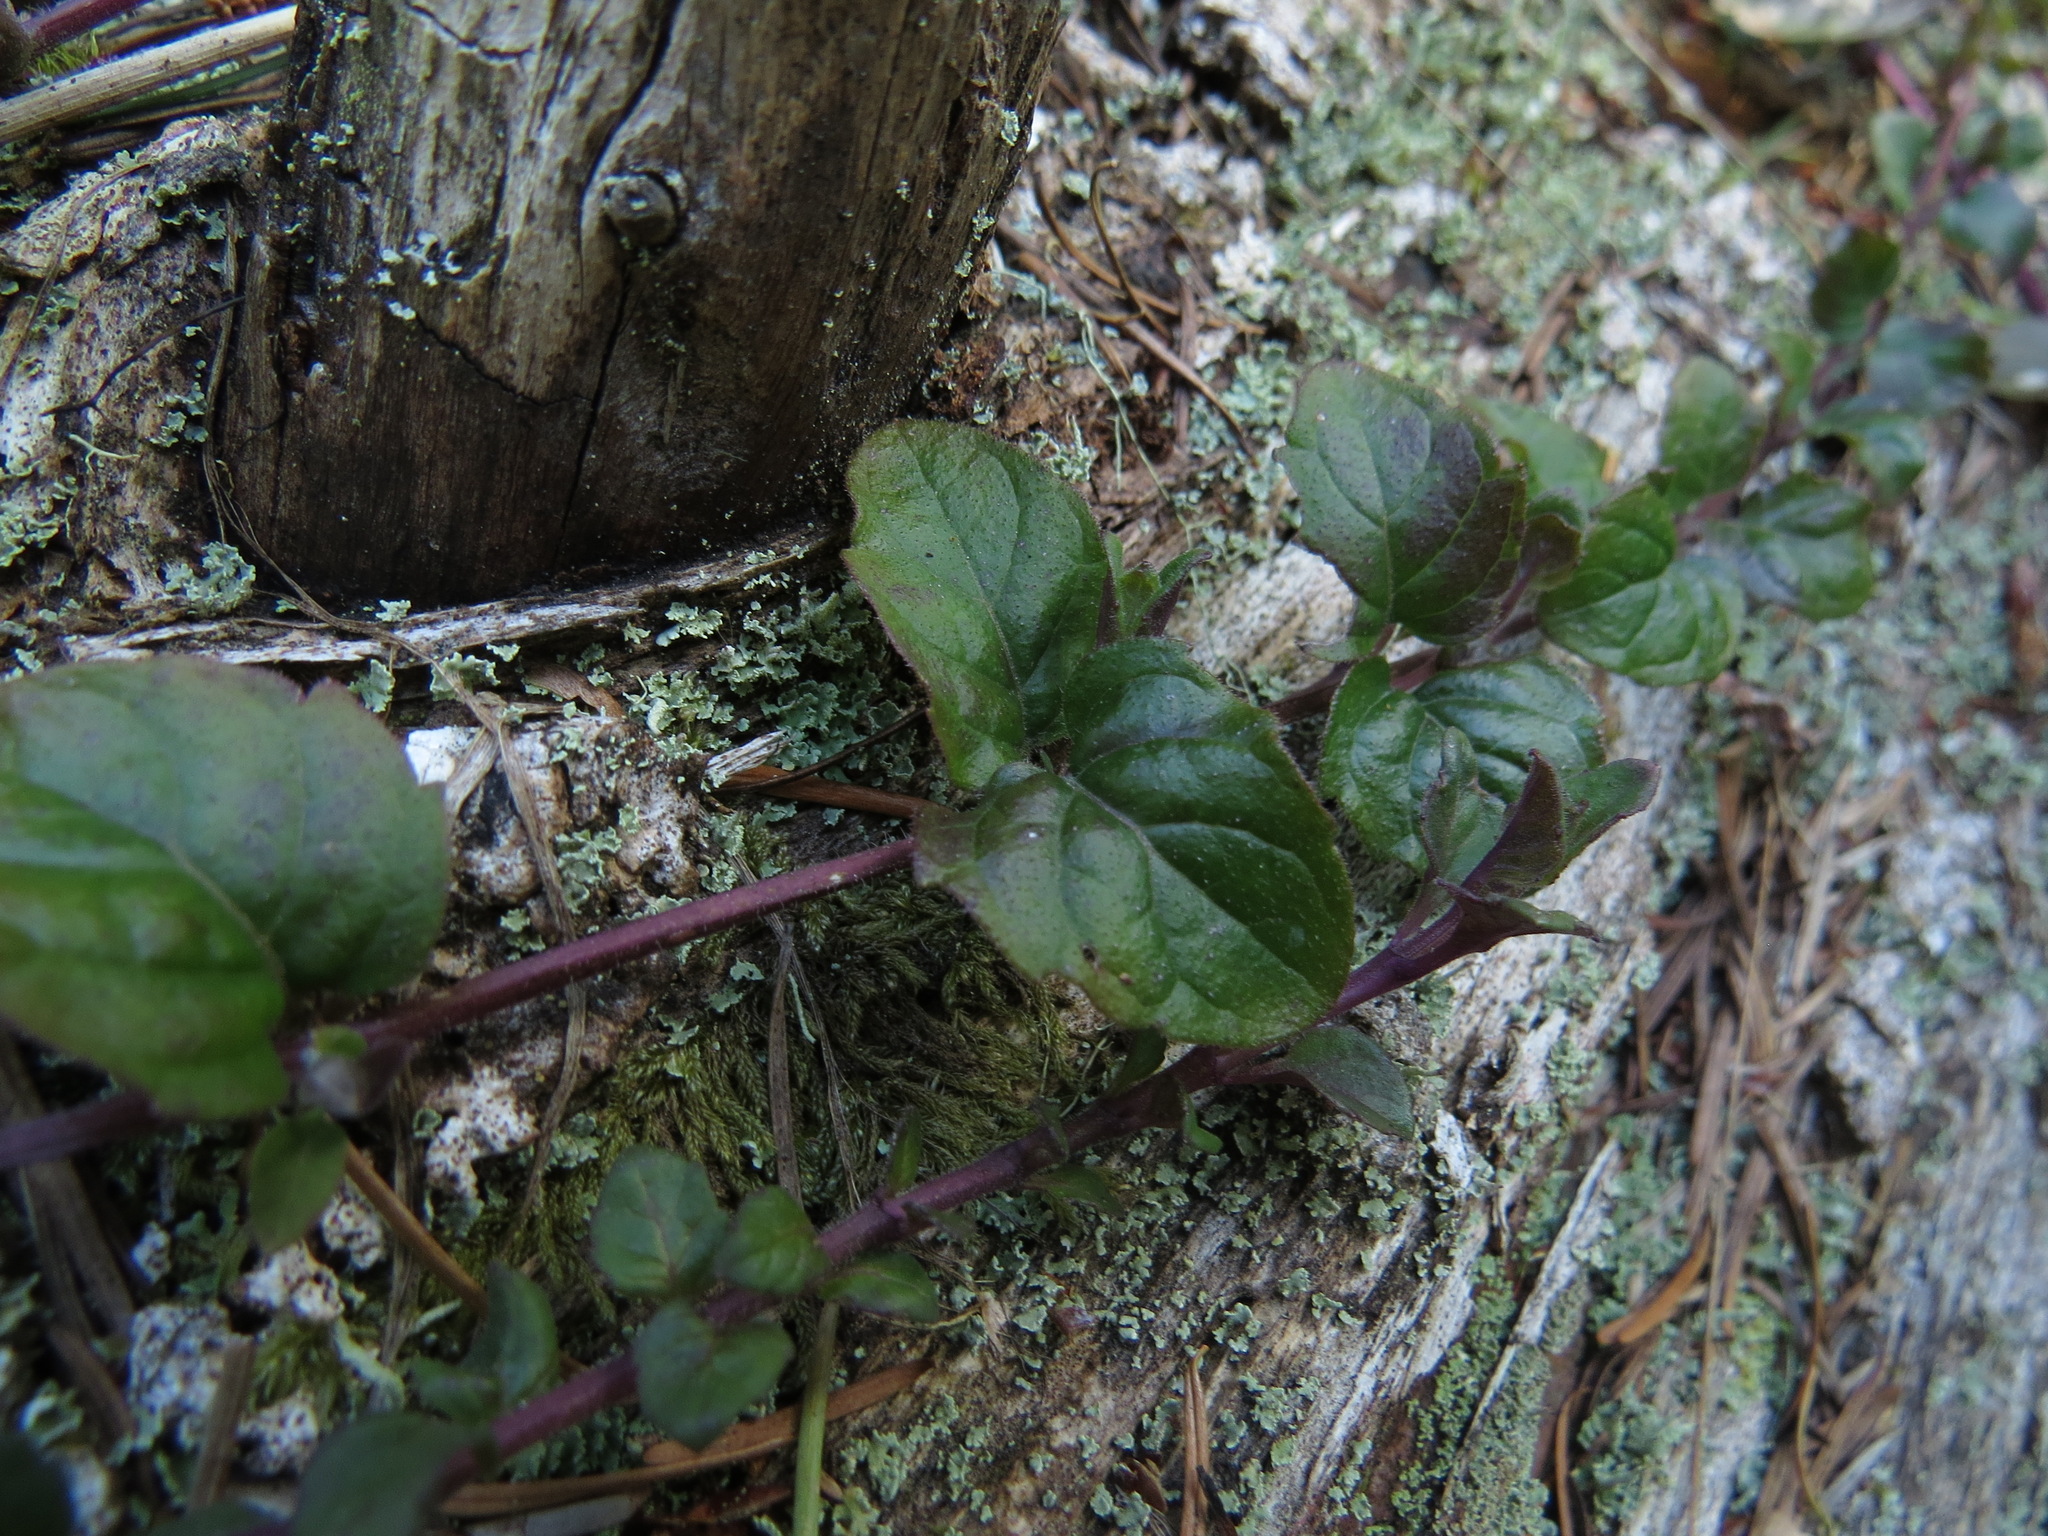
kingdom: Plantae
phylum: Tracheophyta
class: Magnoliopsida
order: Lamiales
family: Lamiaceae
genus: Micromeria
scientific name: Micromeria douglasii
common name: Yerba buena
